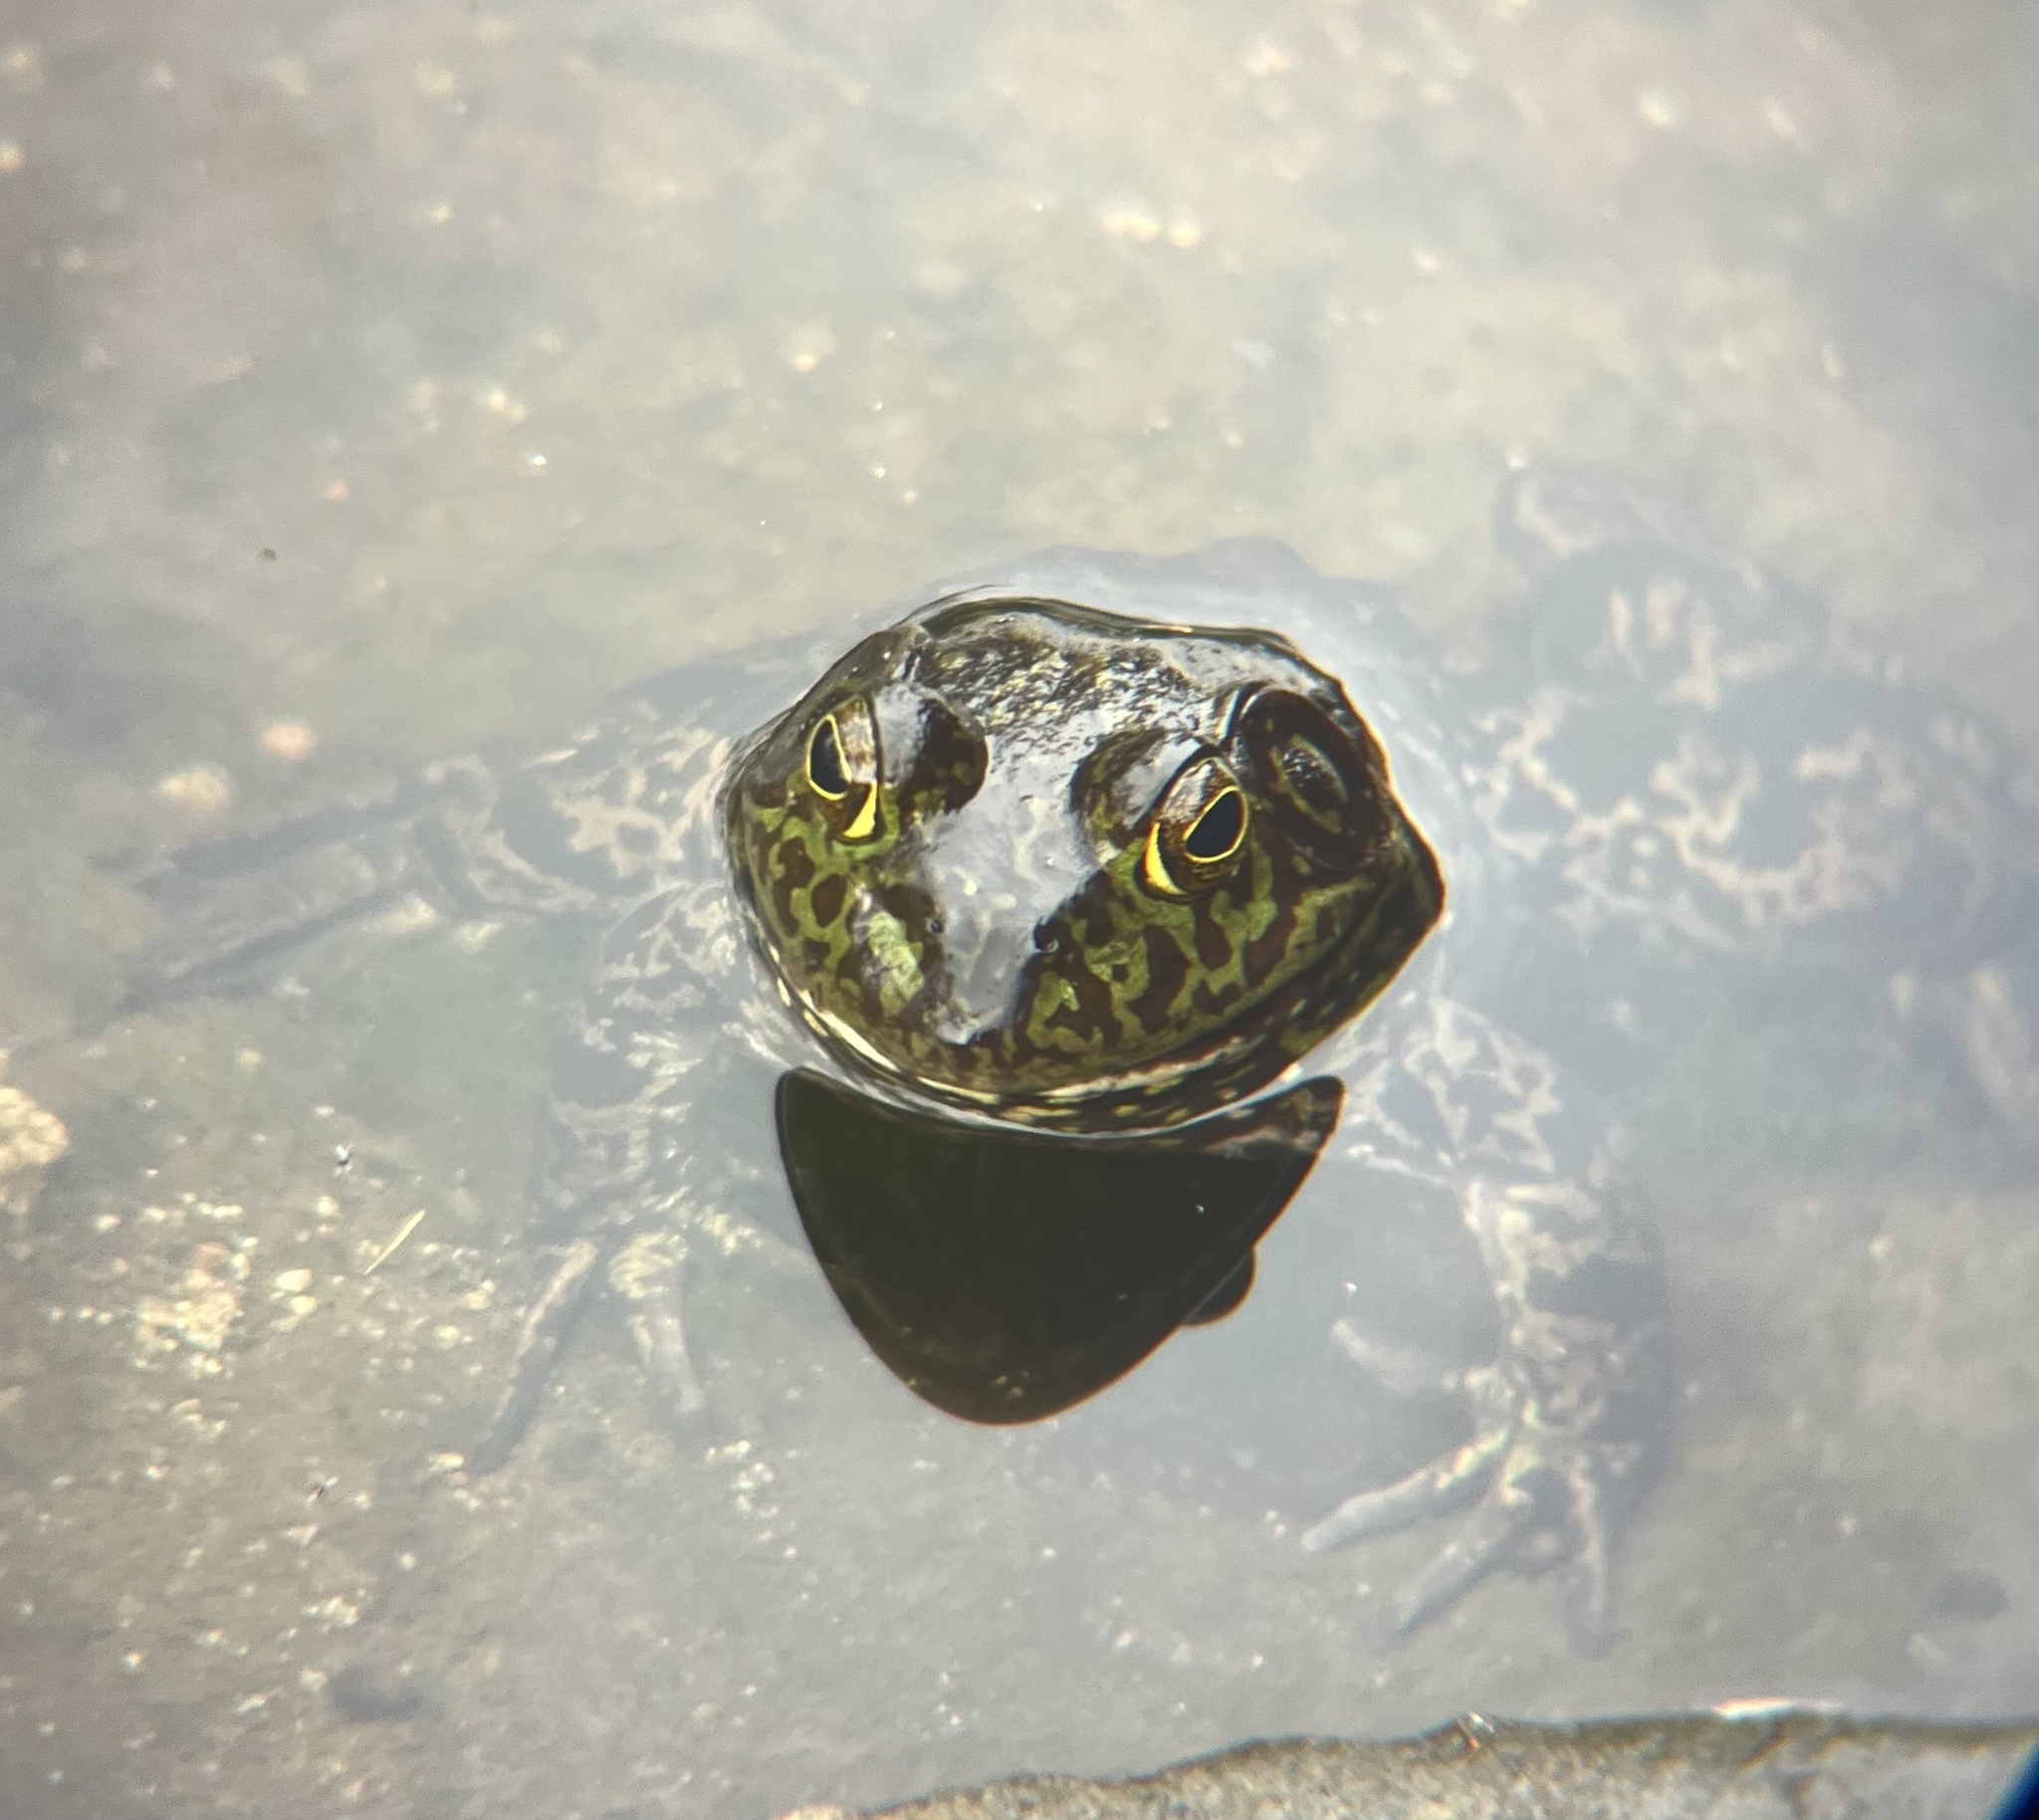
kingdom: Animalia
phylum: Chordata
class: Amphibia
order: Anura
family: Ranidae
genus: Lithobates
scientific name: Lithobates catesbeianus
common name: American bullfrog
